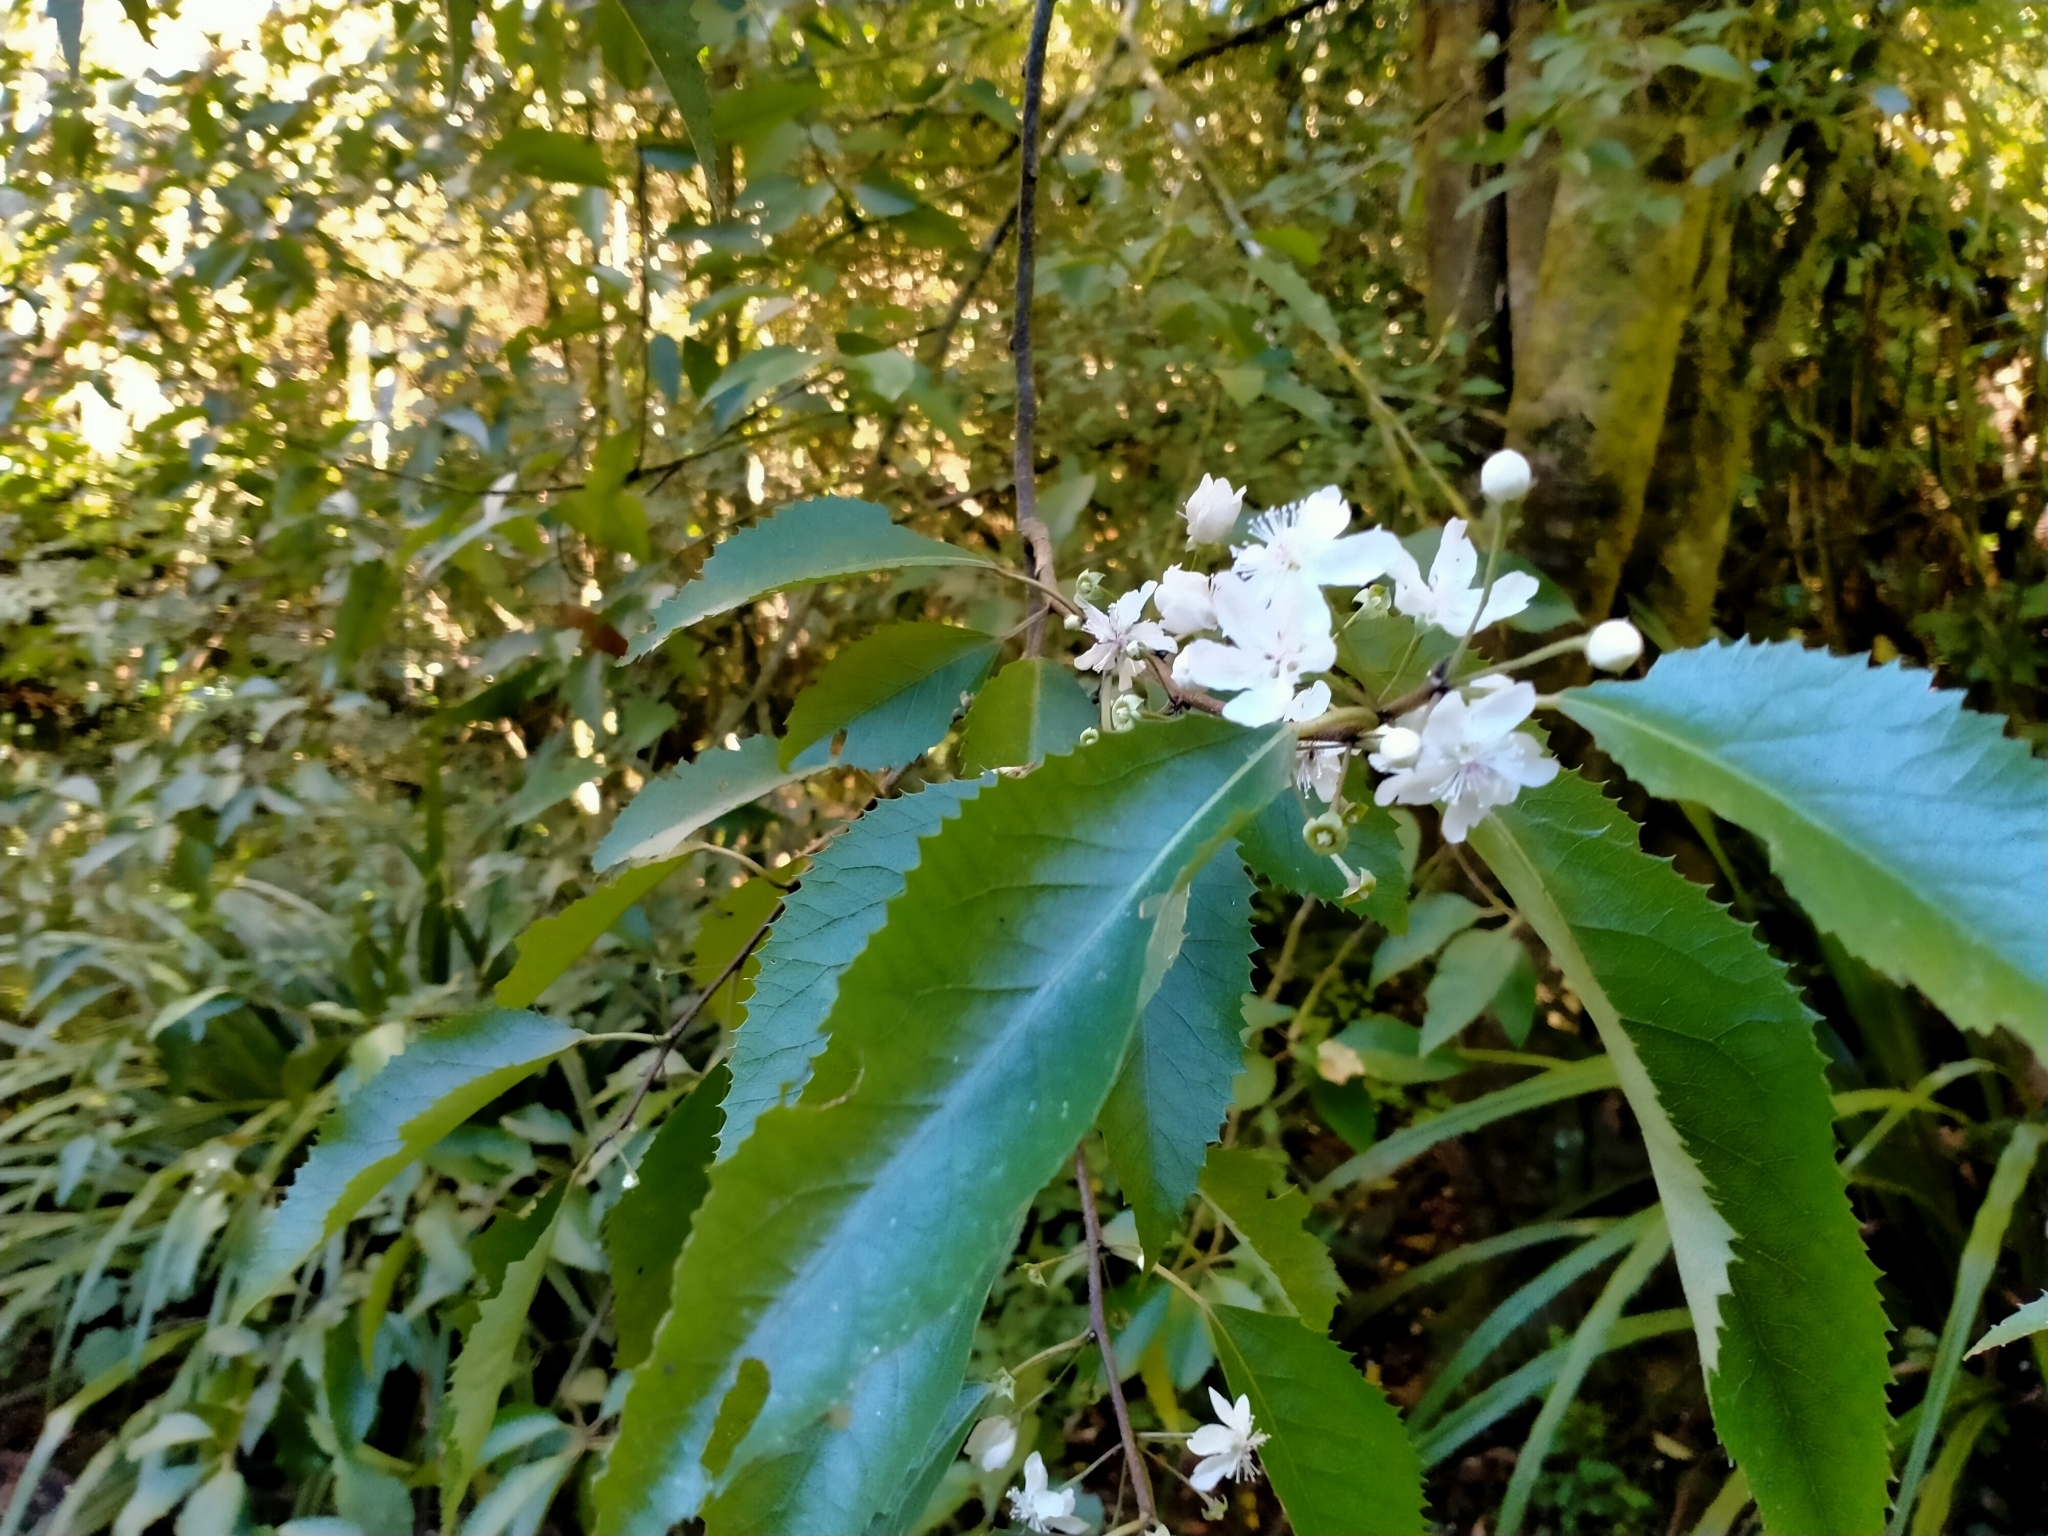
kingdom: Plantae
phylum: Tracheophyta
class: Magnoliopsida
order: Malvales
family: Malvaceae
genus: Hoheria
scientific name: Hoheria sexstylosa
